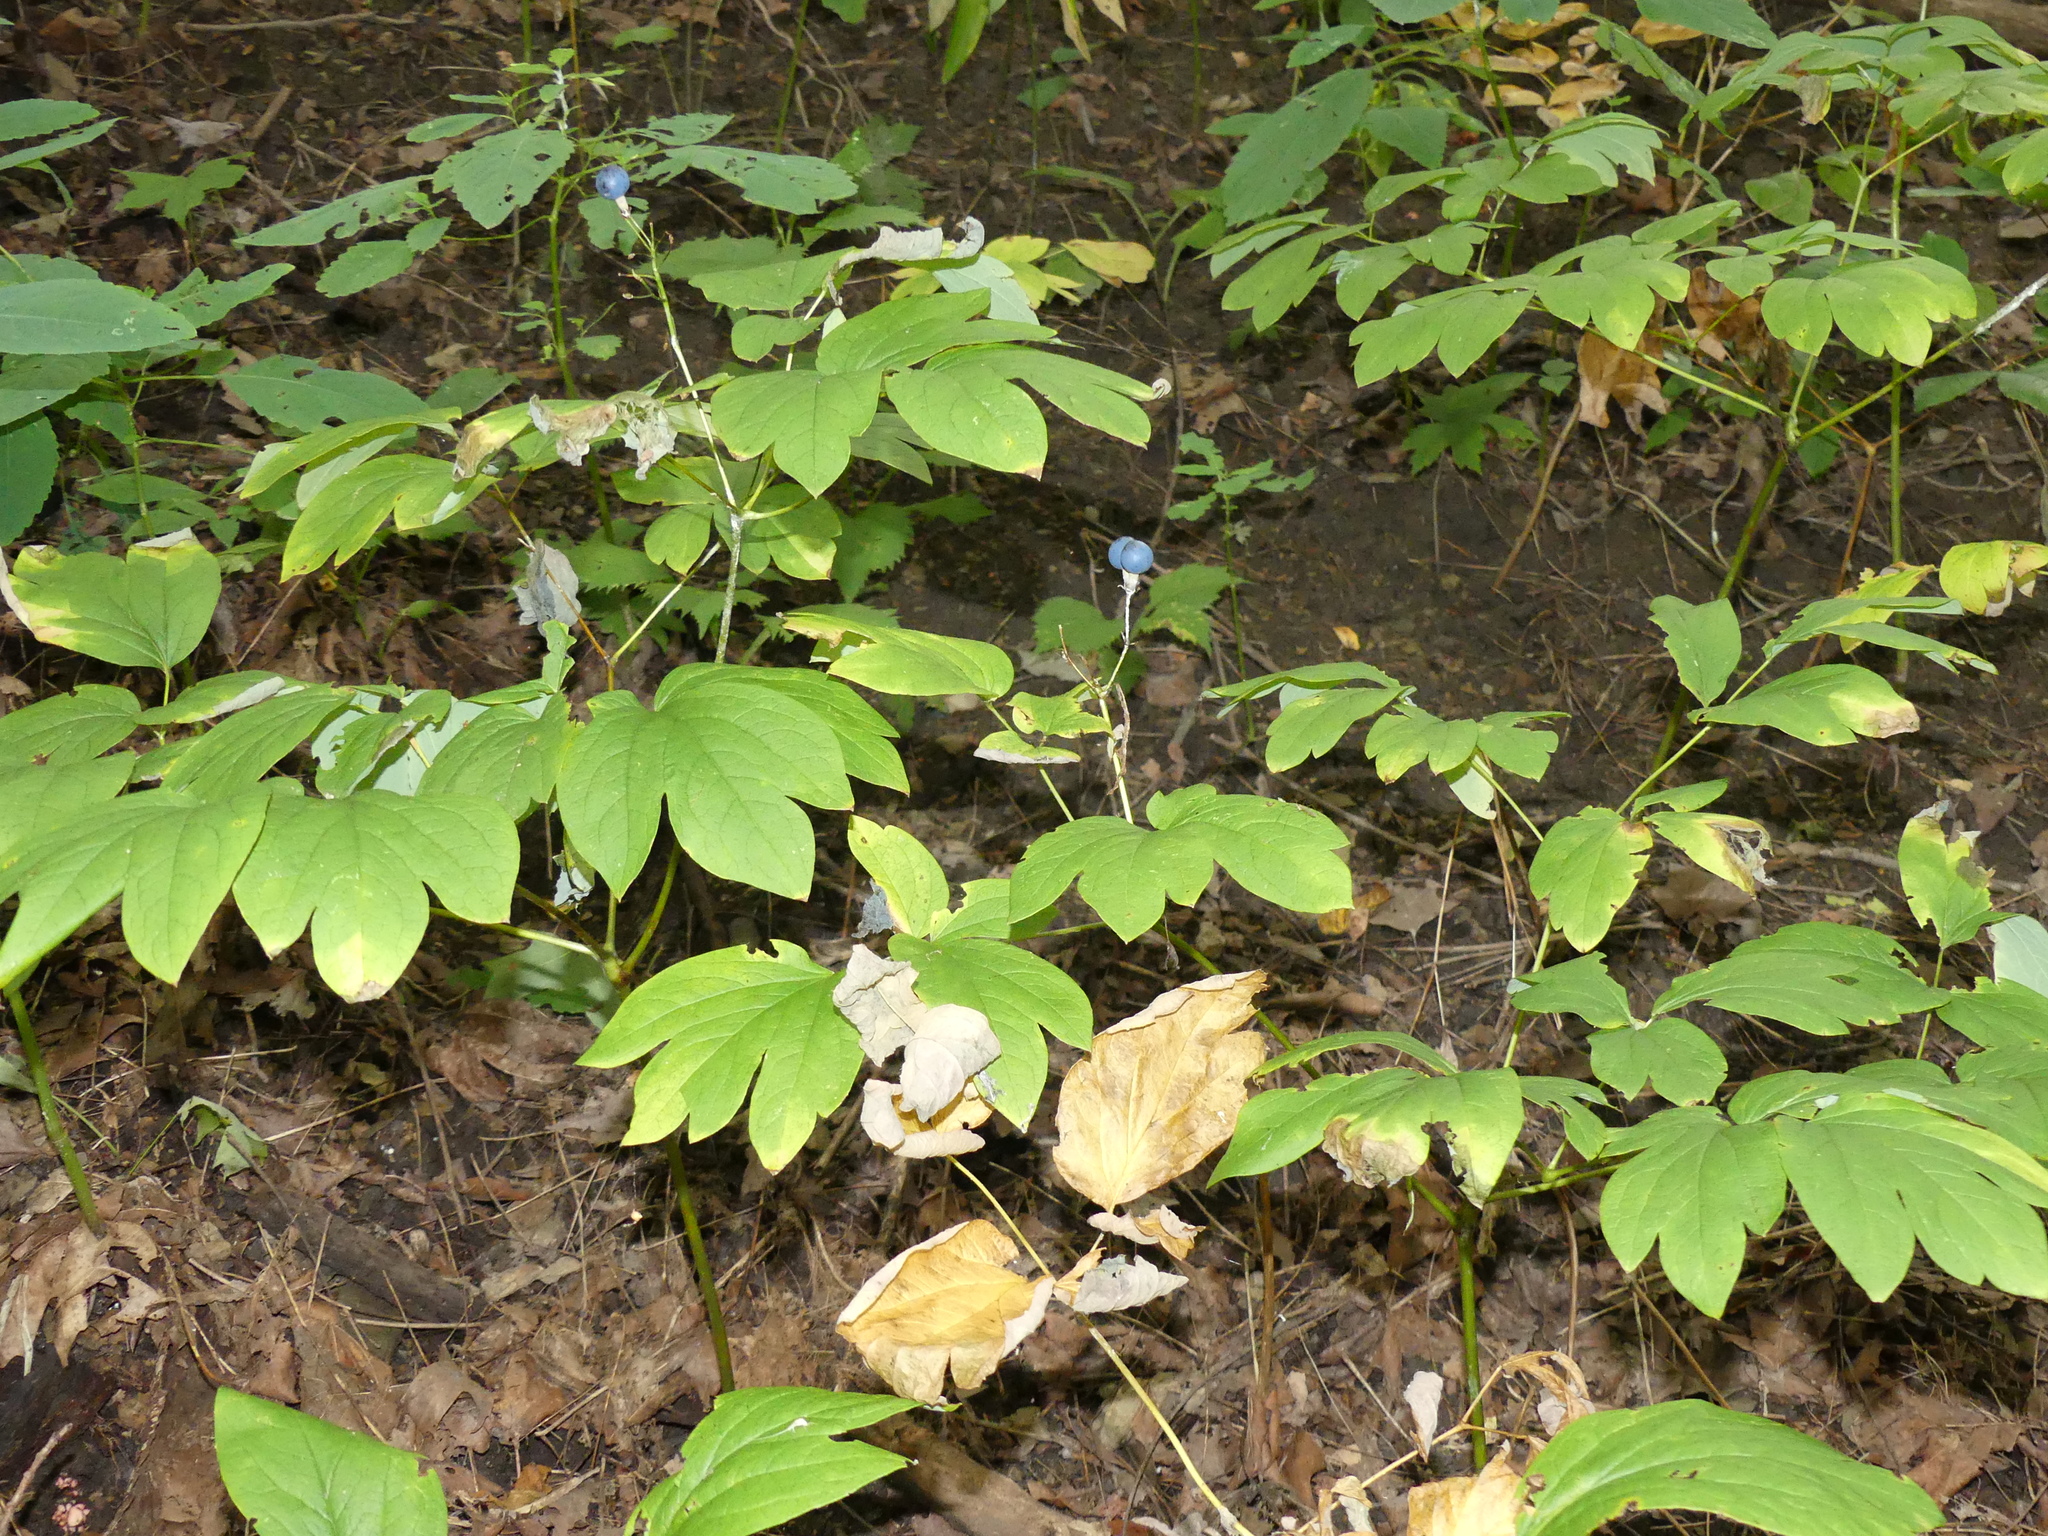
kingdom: Plantae
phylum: Tracheophyta
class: Magnoliopsida
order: Ranunculales
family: Berberidaceae
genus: Caulophyllum
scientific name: Caulophyllum thalictroides
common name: Blue cohosh
